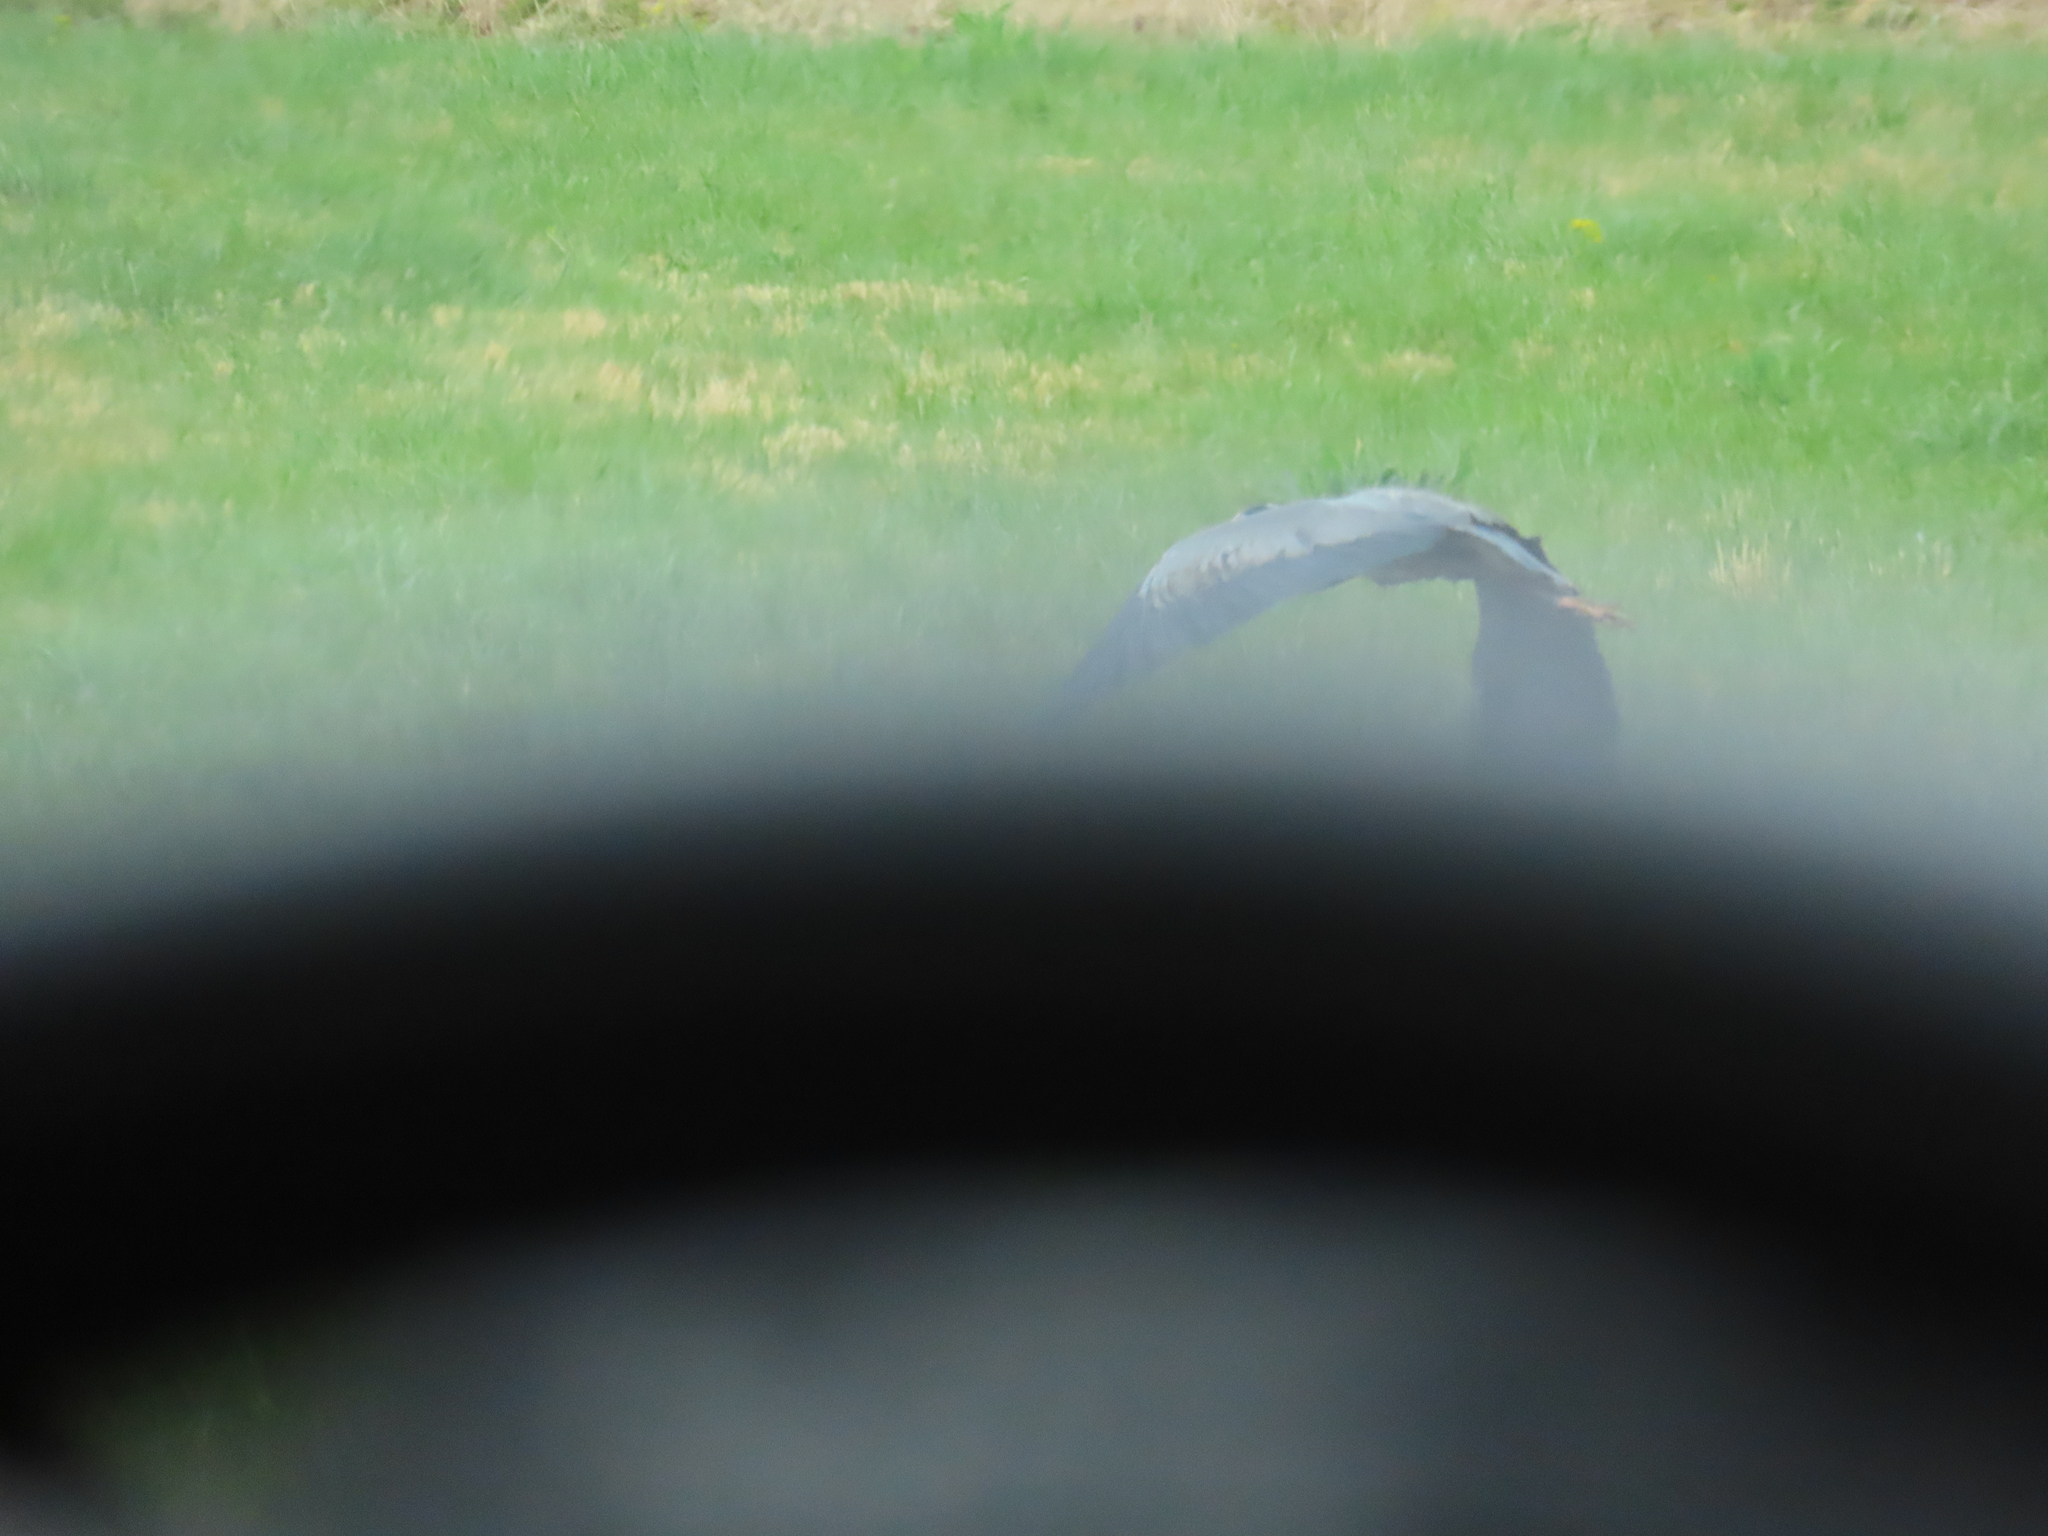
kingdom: Animalia
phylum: Chordata
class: Aves
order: Pelecaniformes
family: Ardeidae
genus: Ardea
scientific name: Ardea herodias
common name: Great blue heron
